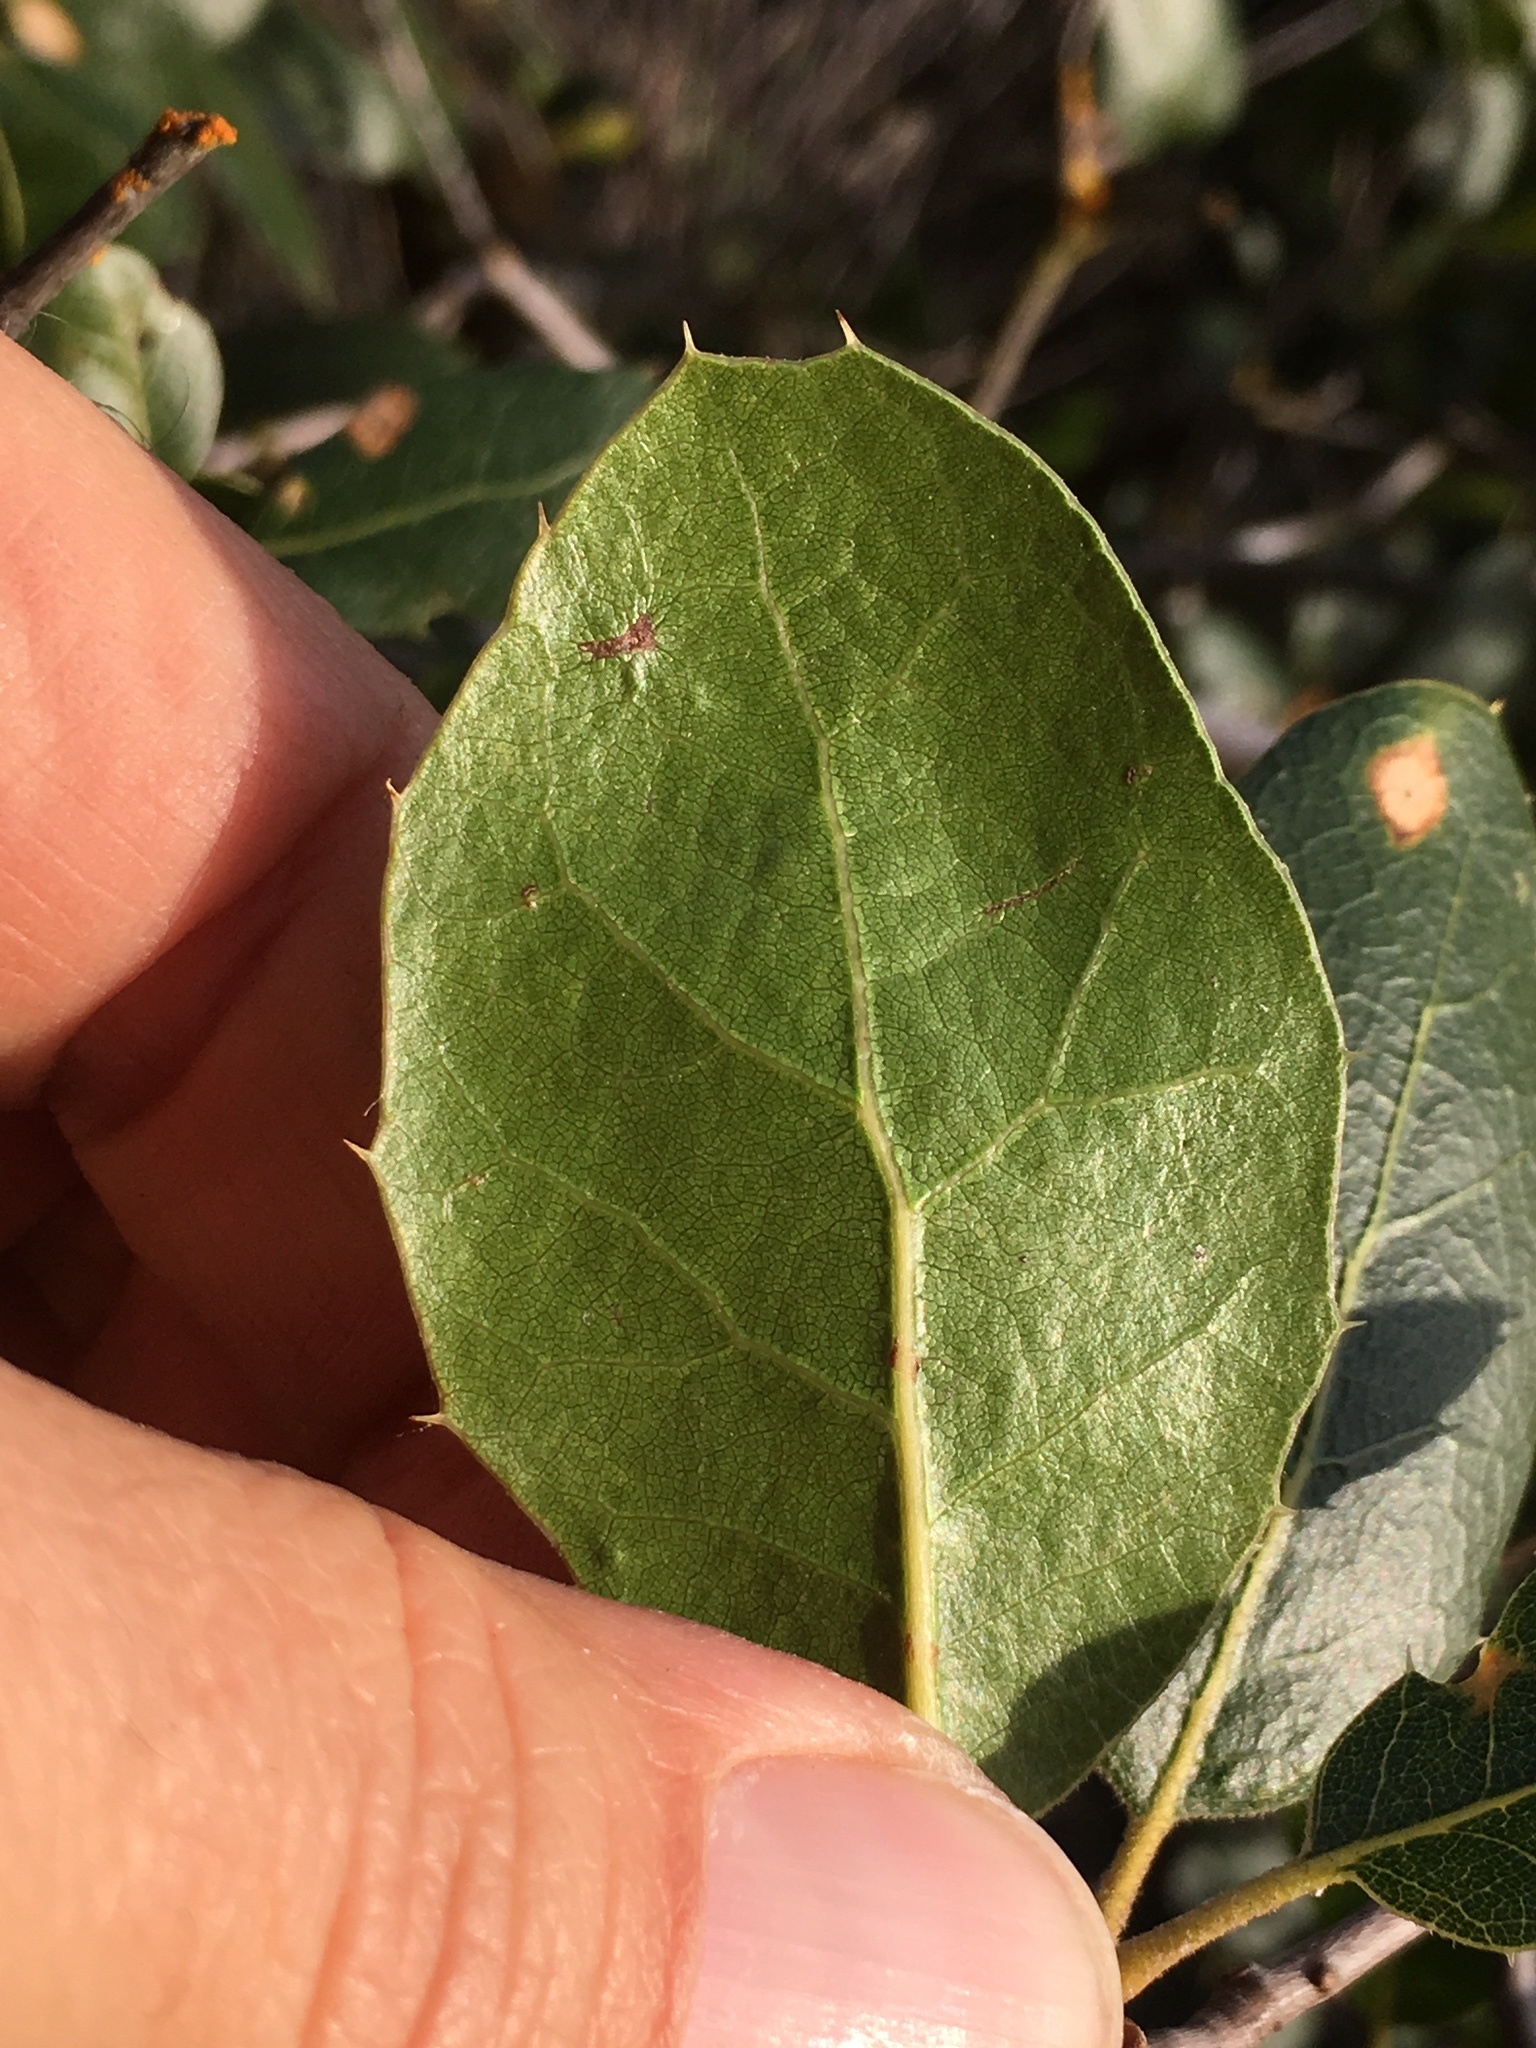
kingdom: Plantae
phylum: Tracheophyta
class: Magnoliopsida
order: Fagales
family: Fagaceae
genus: Quercus
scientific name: Quercus wislizeni
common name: Interior live oak
